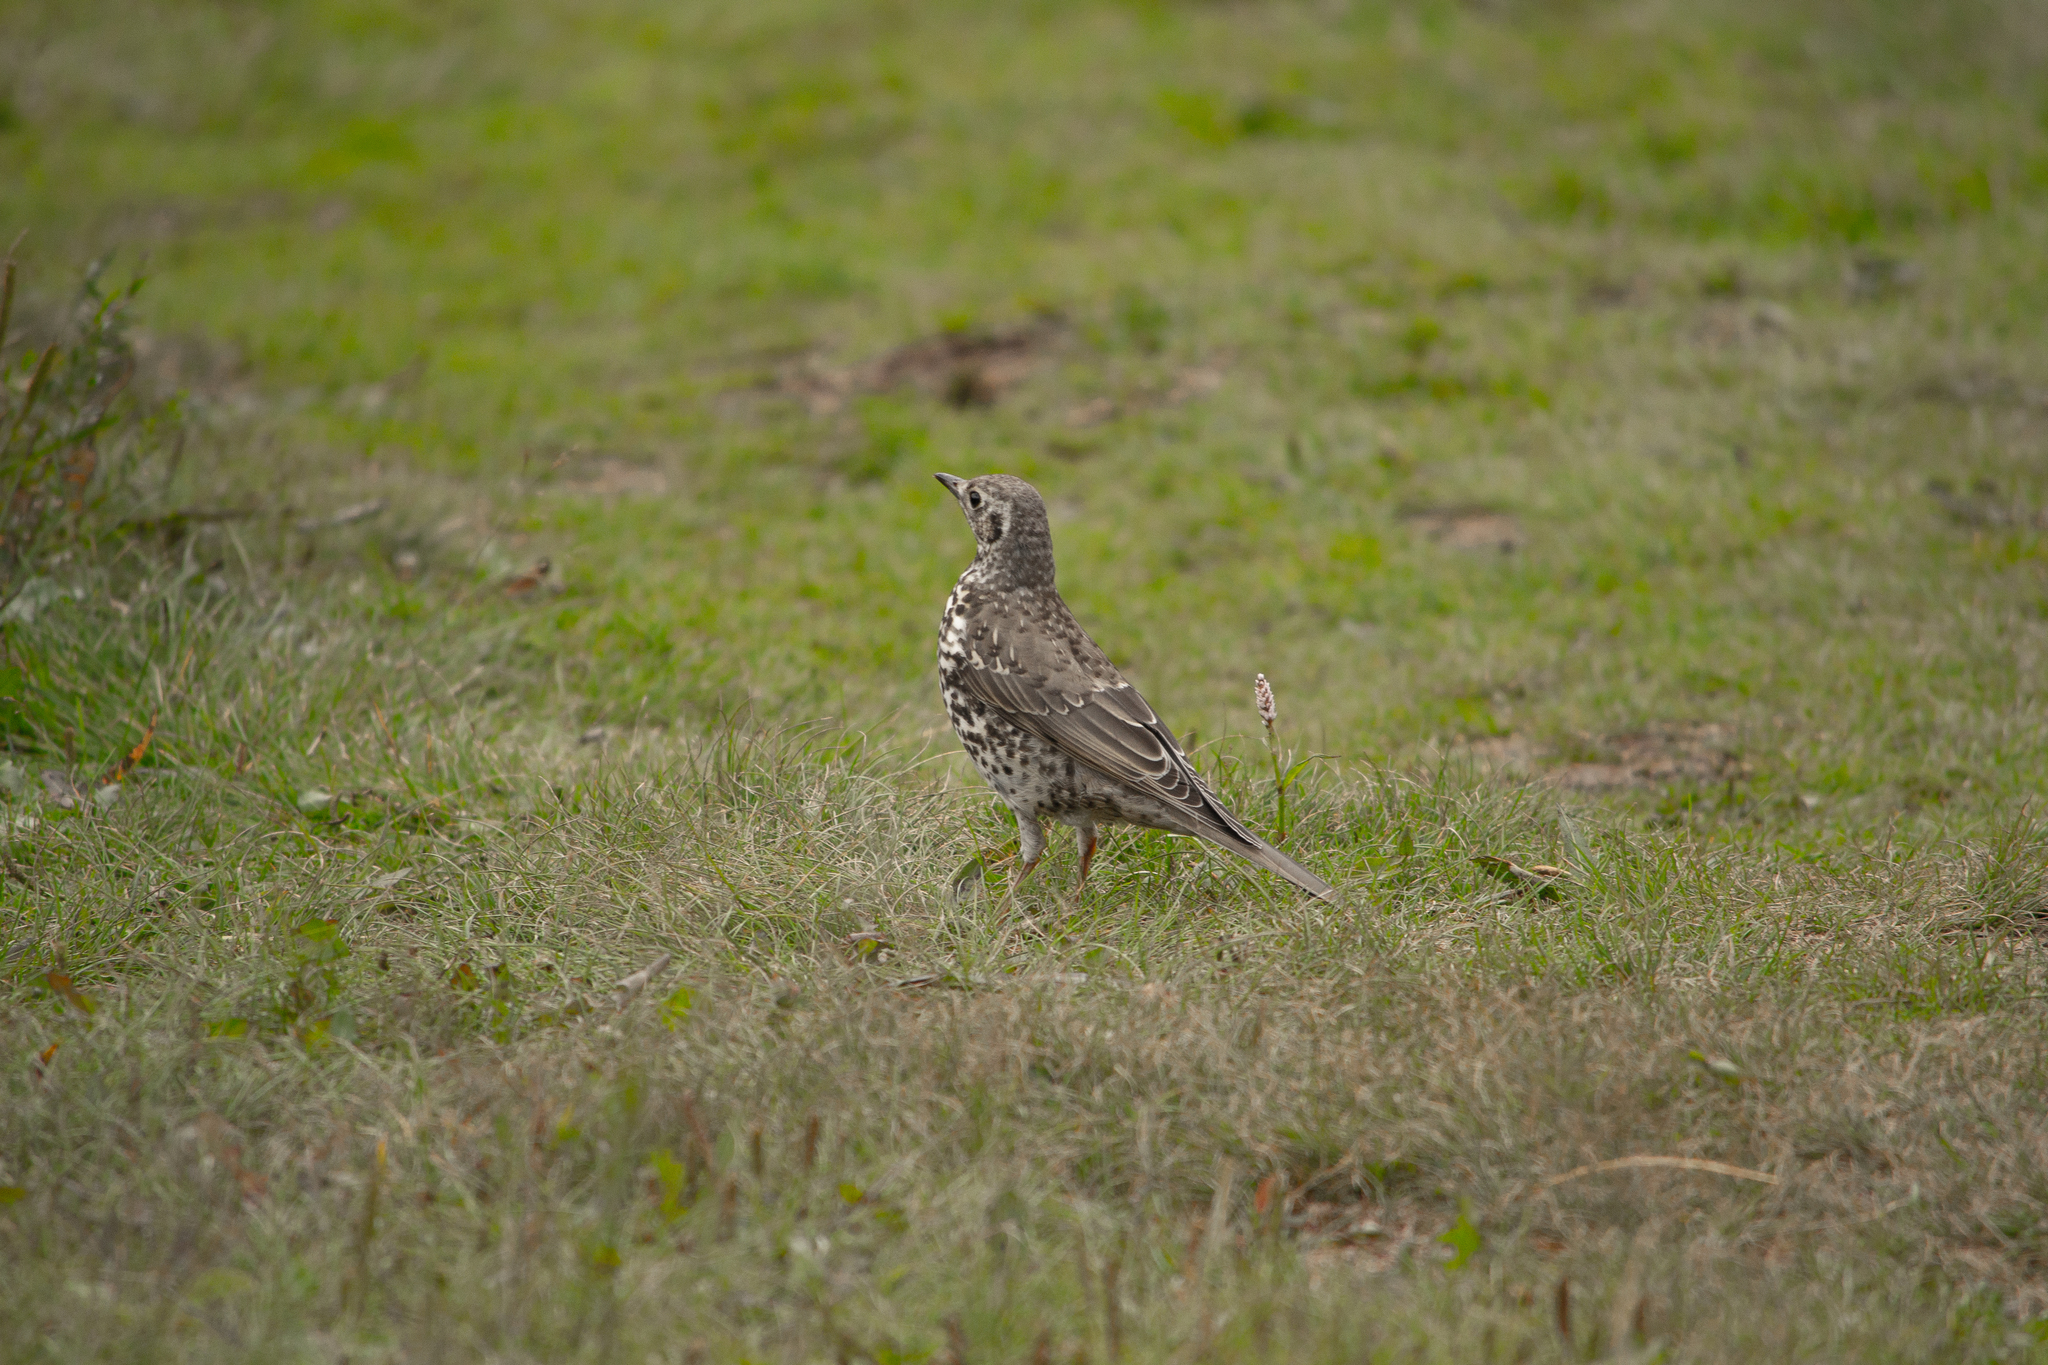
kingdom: Animalia
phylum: Chordata
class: Aves
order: Passeriformes
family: Turdidae
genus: Turdus
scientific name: Turdus viscivorus
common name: Mistle thrush
